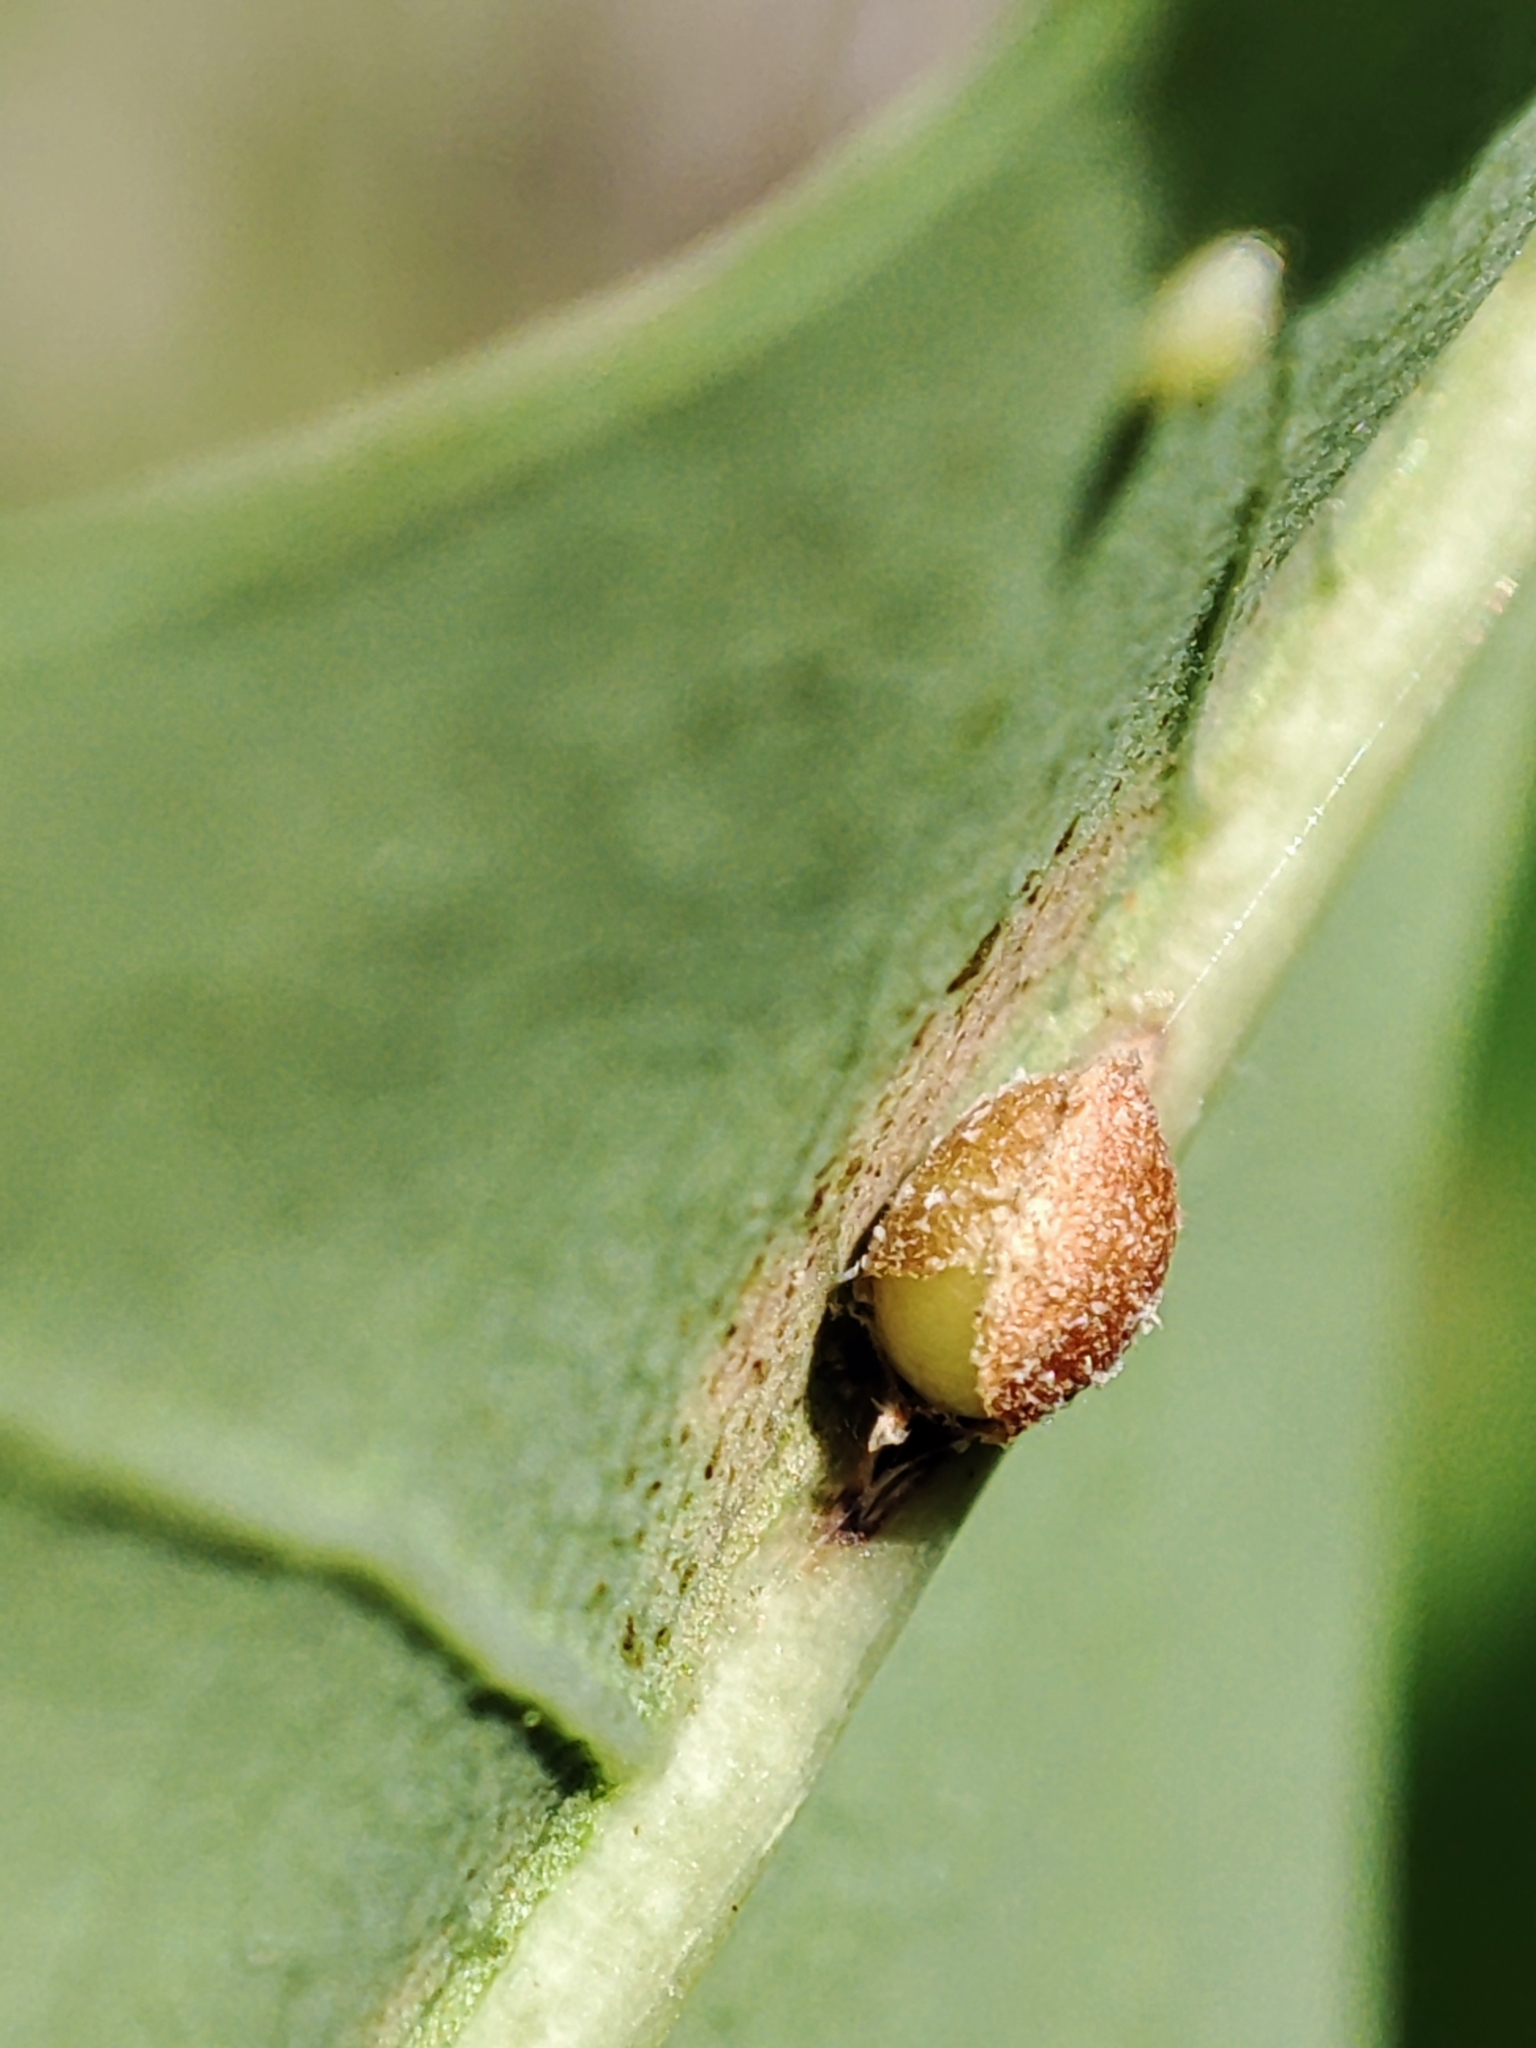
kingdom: Plantae
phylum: Tracheophyta
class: Magnoliopsida
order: Fagales
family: Fagaceae
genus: Quercus
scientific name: Quercus robur
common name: Pedunculate oak
